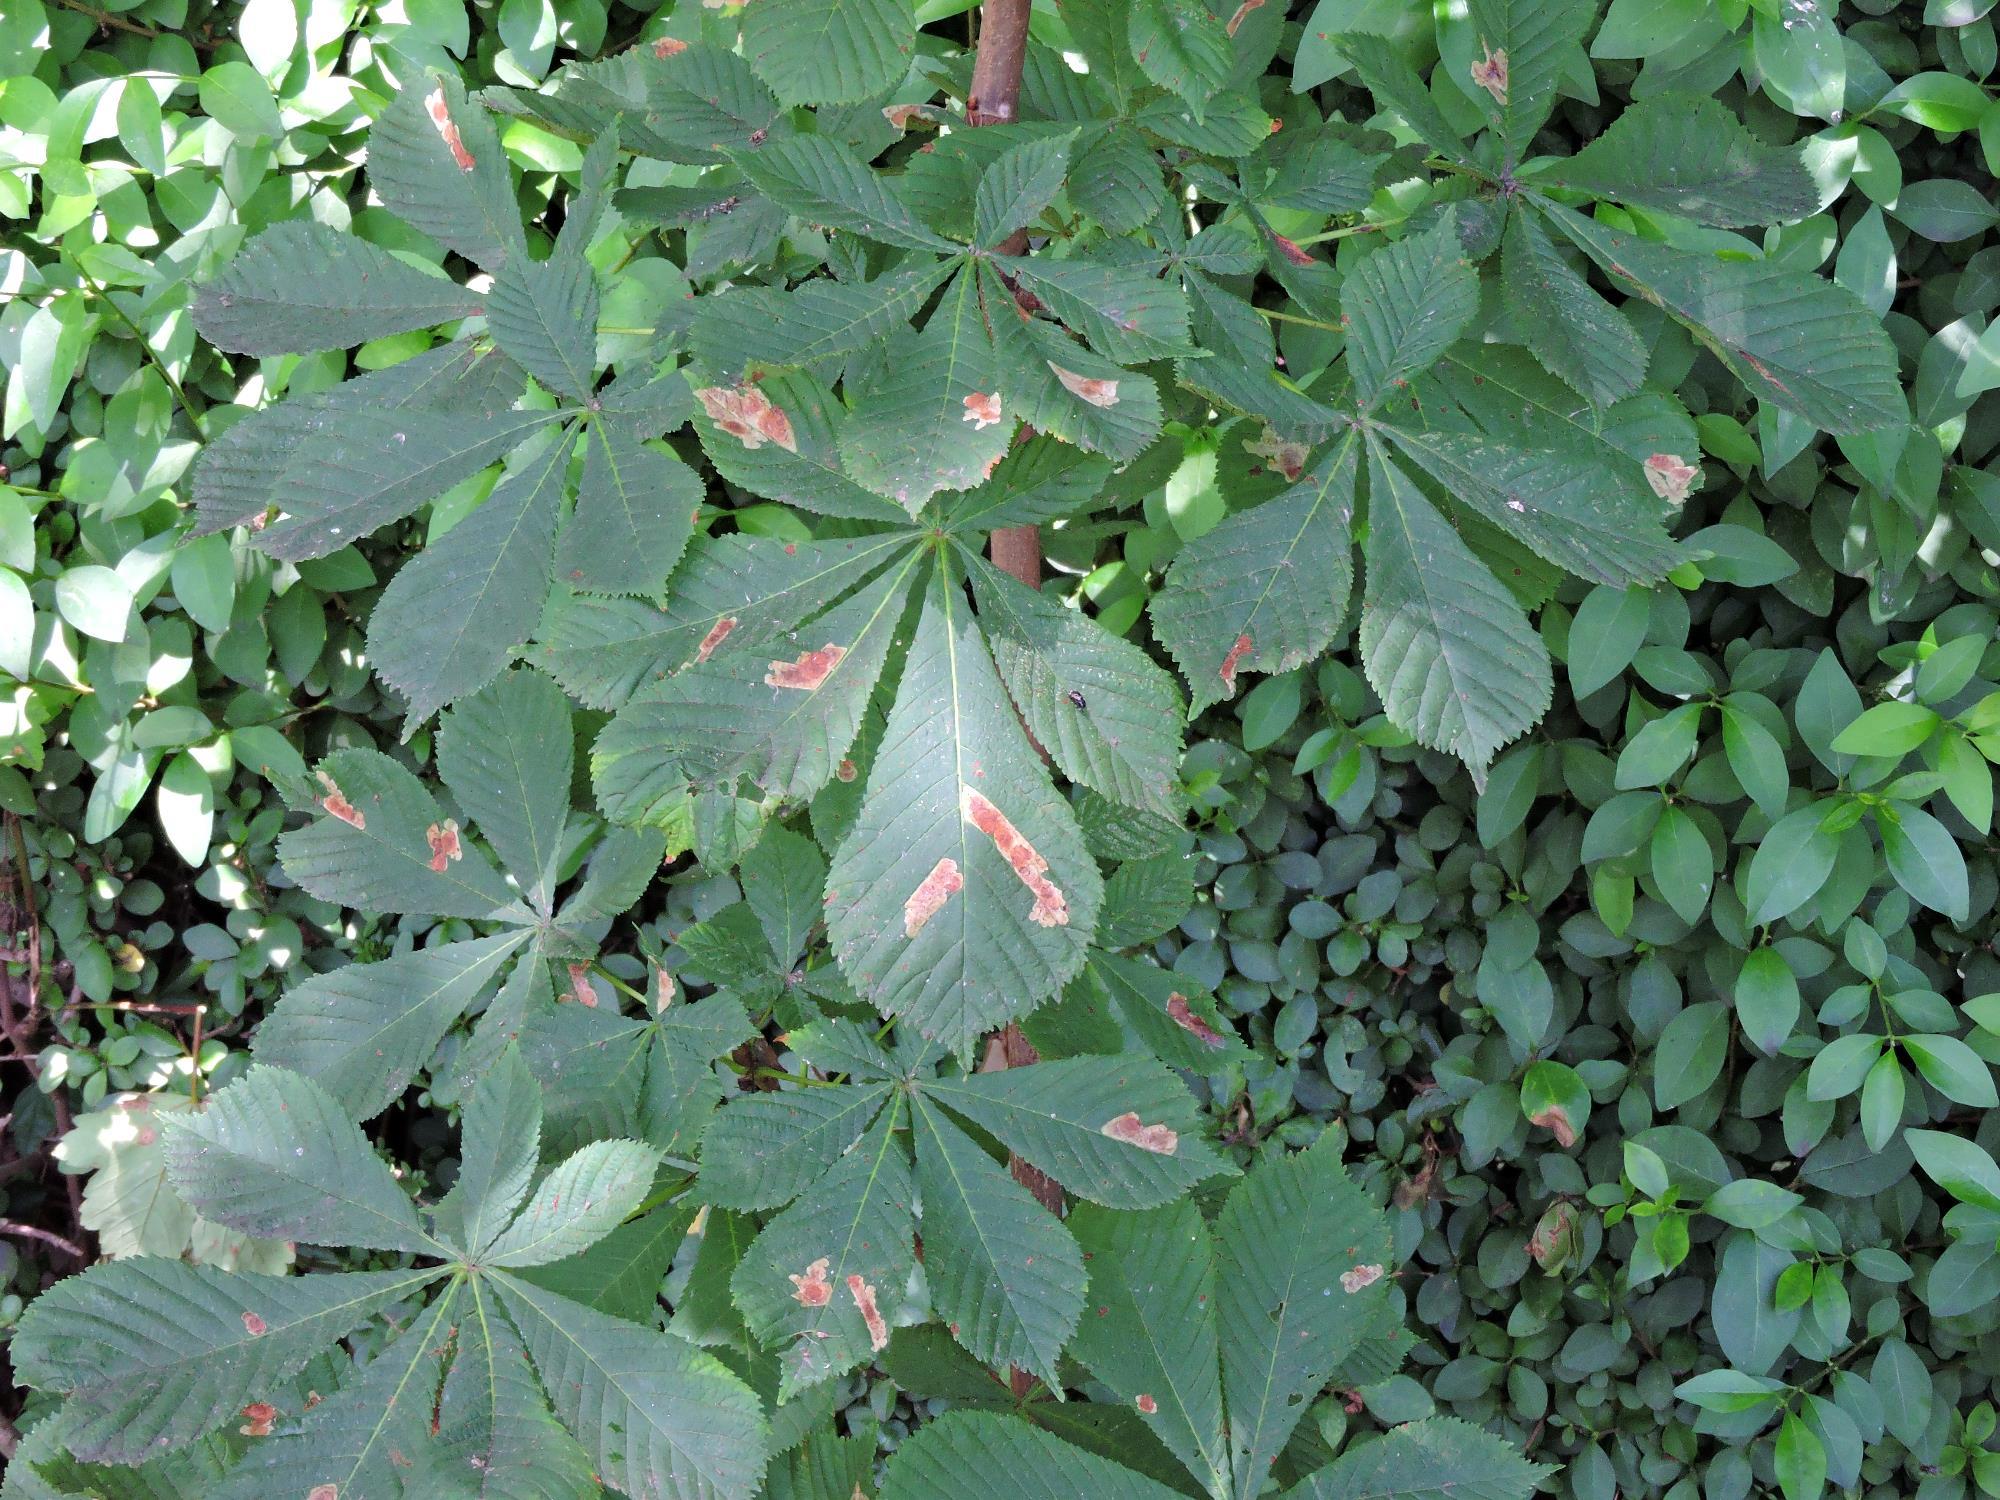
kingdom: Animalia
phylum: Arthropoda
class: Insecta
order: Lepidoptera
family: Gracillariidae
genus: Cameraria
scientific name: Cameraria ohridella
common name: Horse-chestnut leaf-miner
